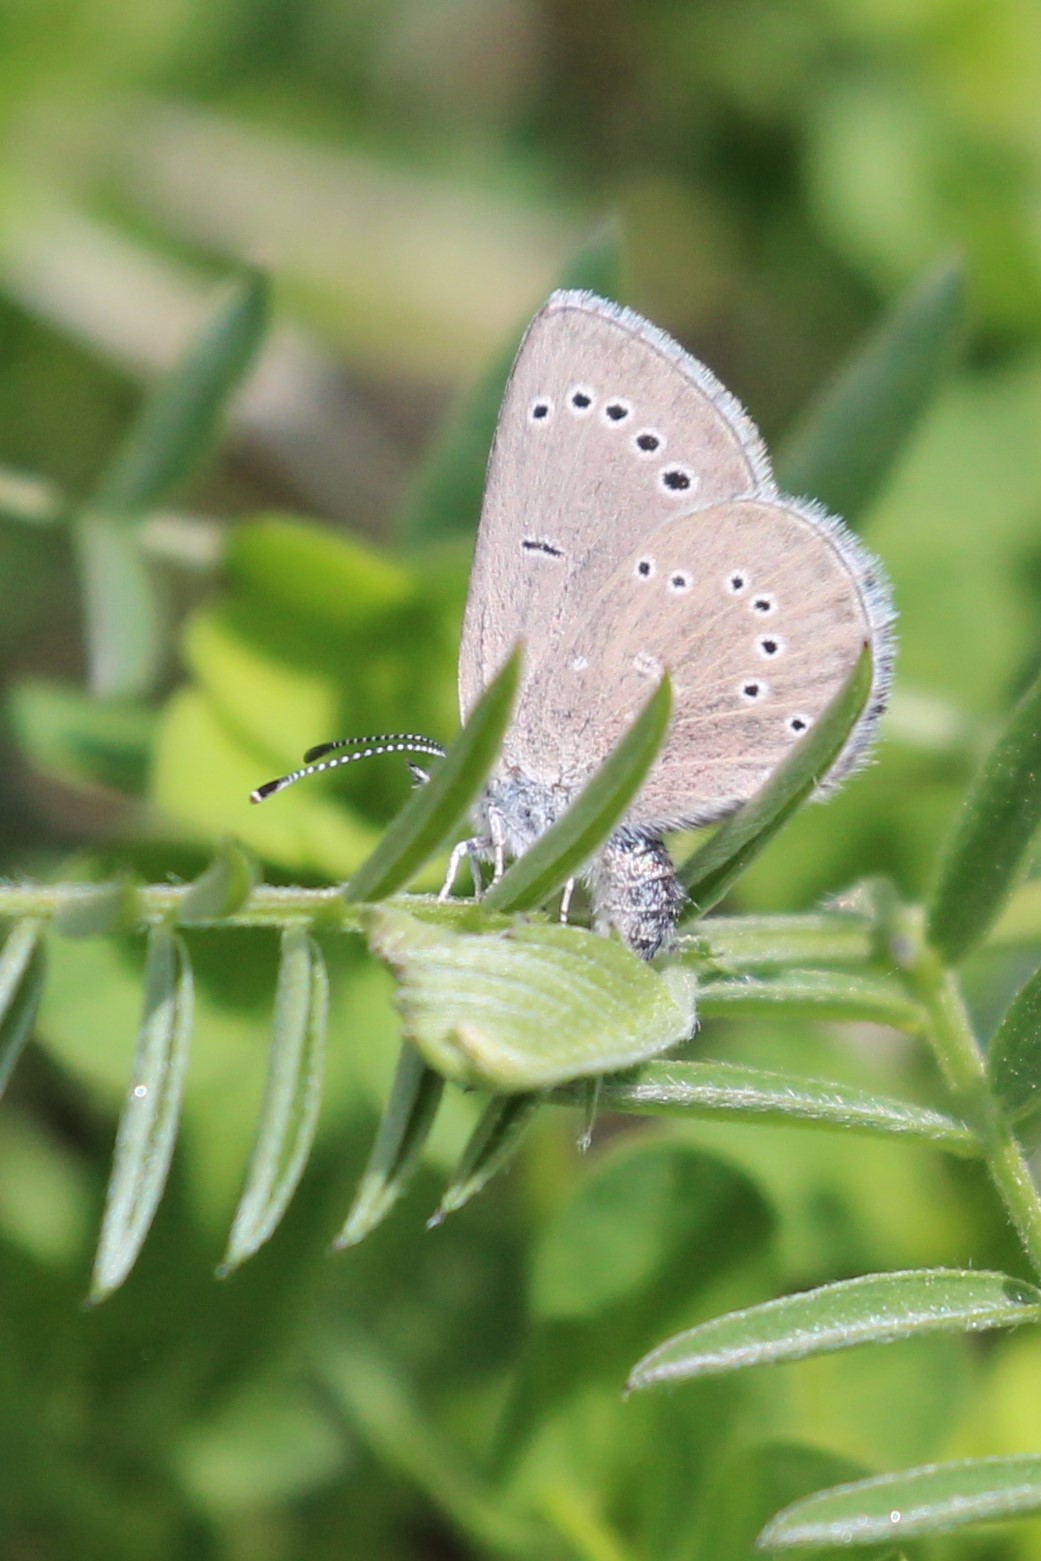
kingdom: Animalia
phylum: Arthropoda
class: Insecta
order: Lepidoptera
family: Lycaenidae
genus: Glaucopsyche
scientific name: Glaucopsyche lygdamus
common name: Silvery blue
